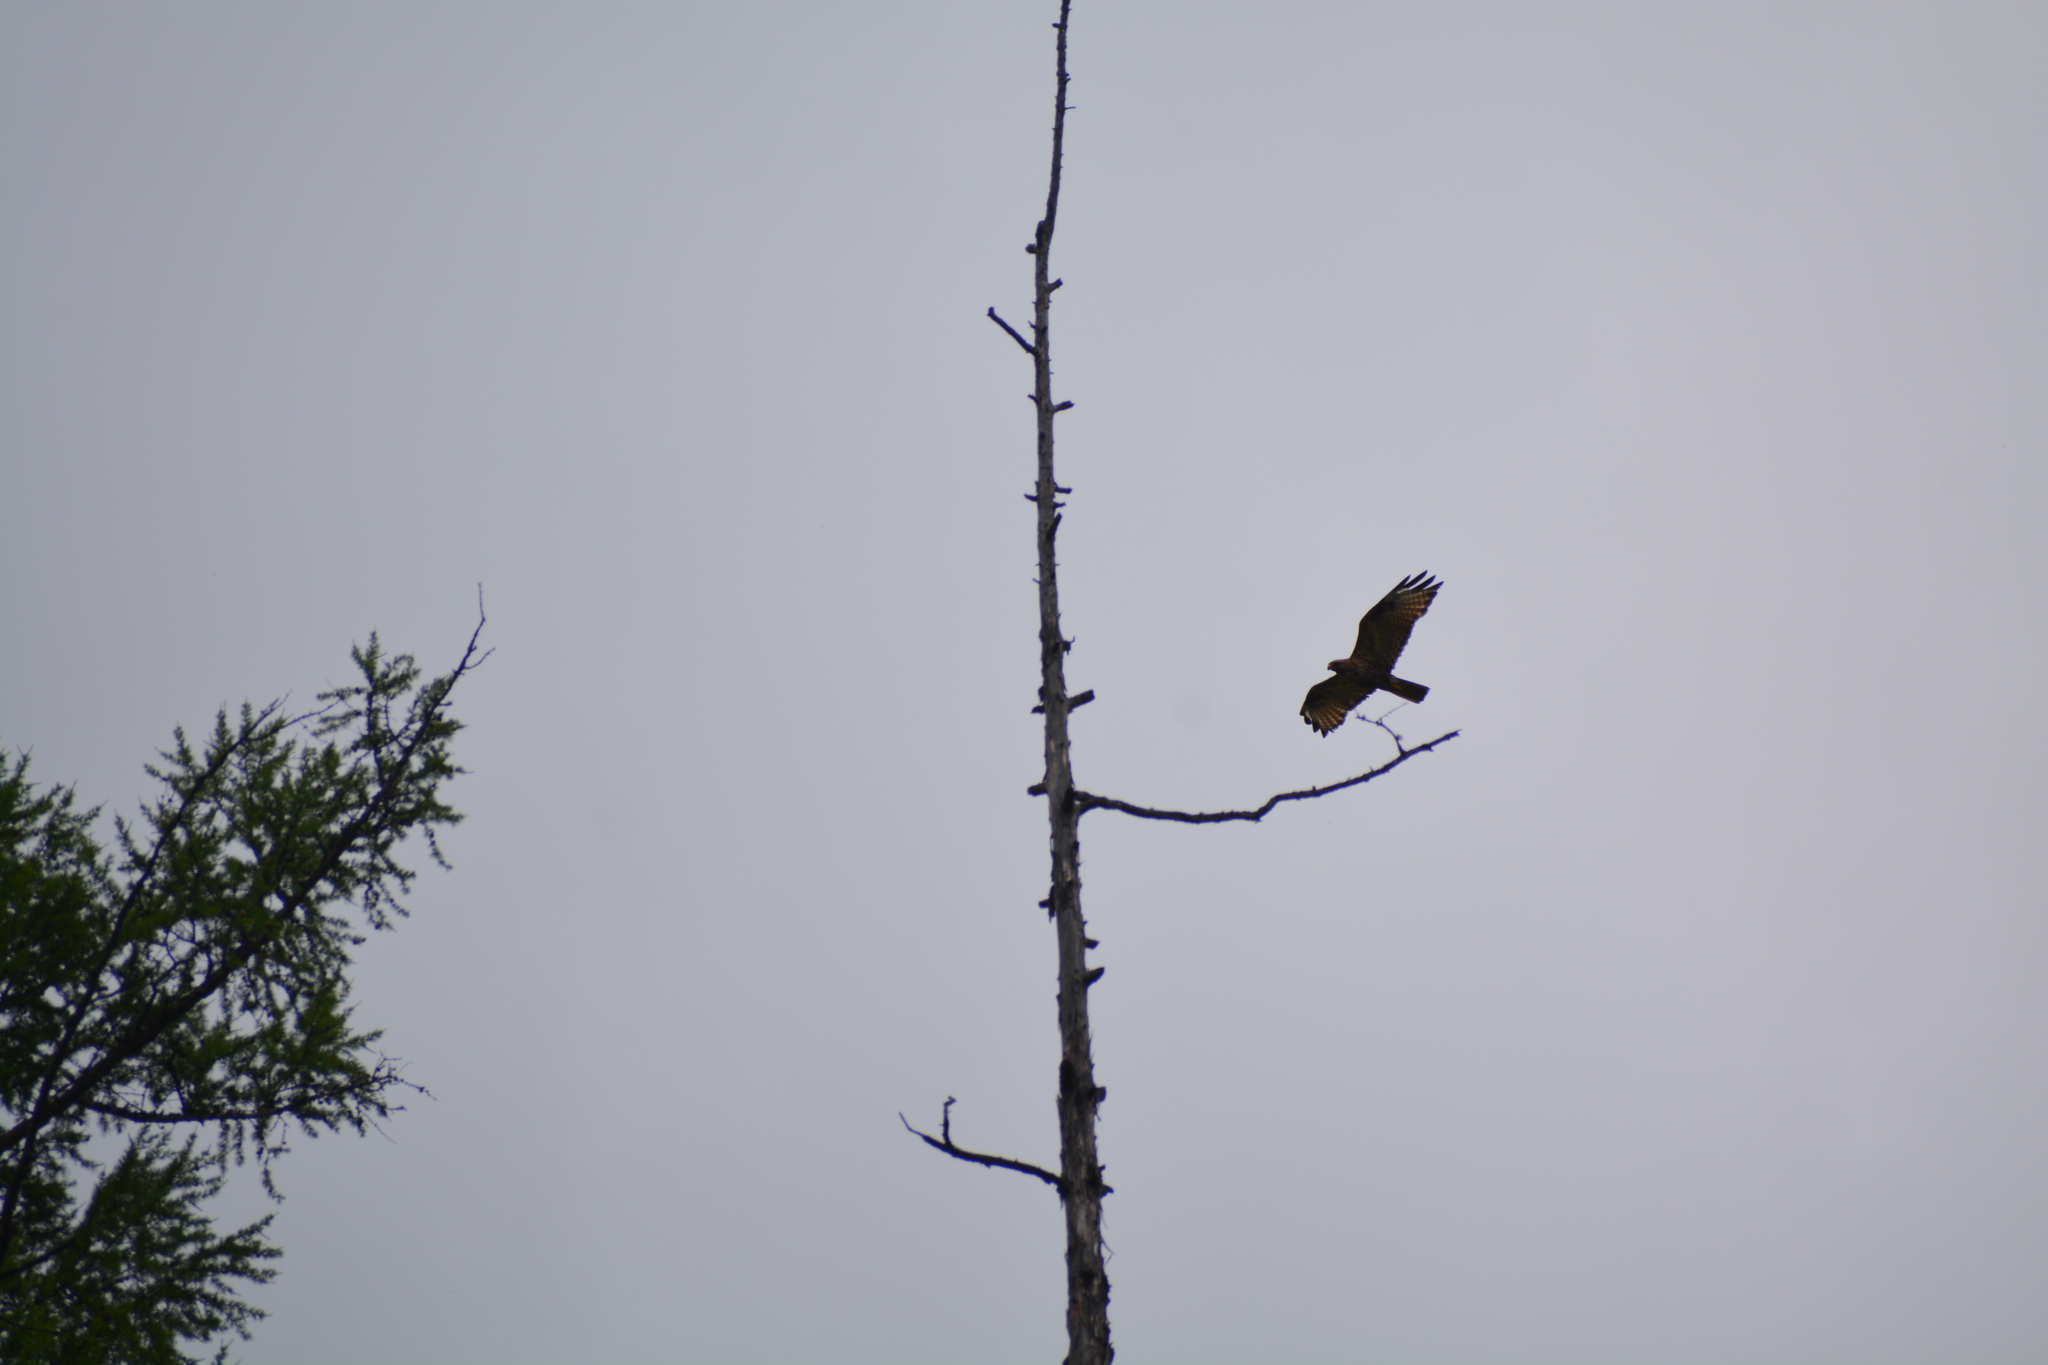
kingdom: Animalia
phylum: Chordata
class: Aves
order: Accipitriformes
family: Accipitridae
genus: Buteo
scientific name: Buteo japonicus
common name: Eastern buzzard
